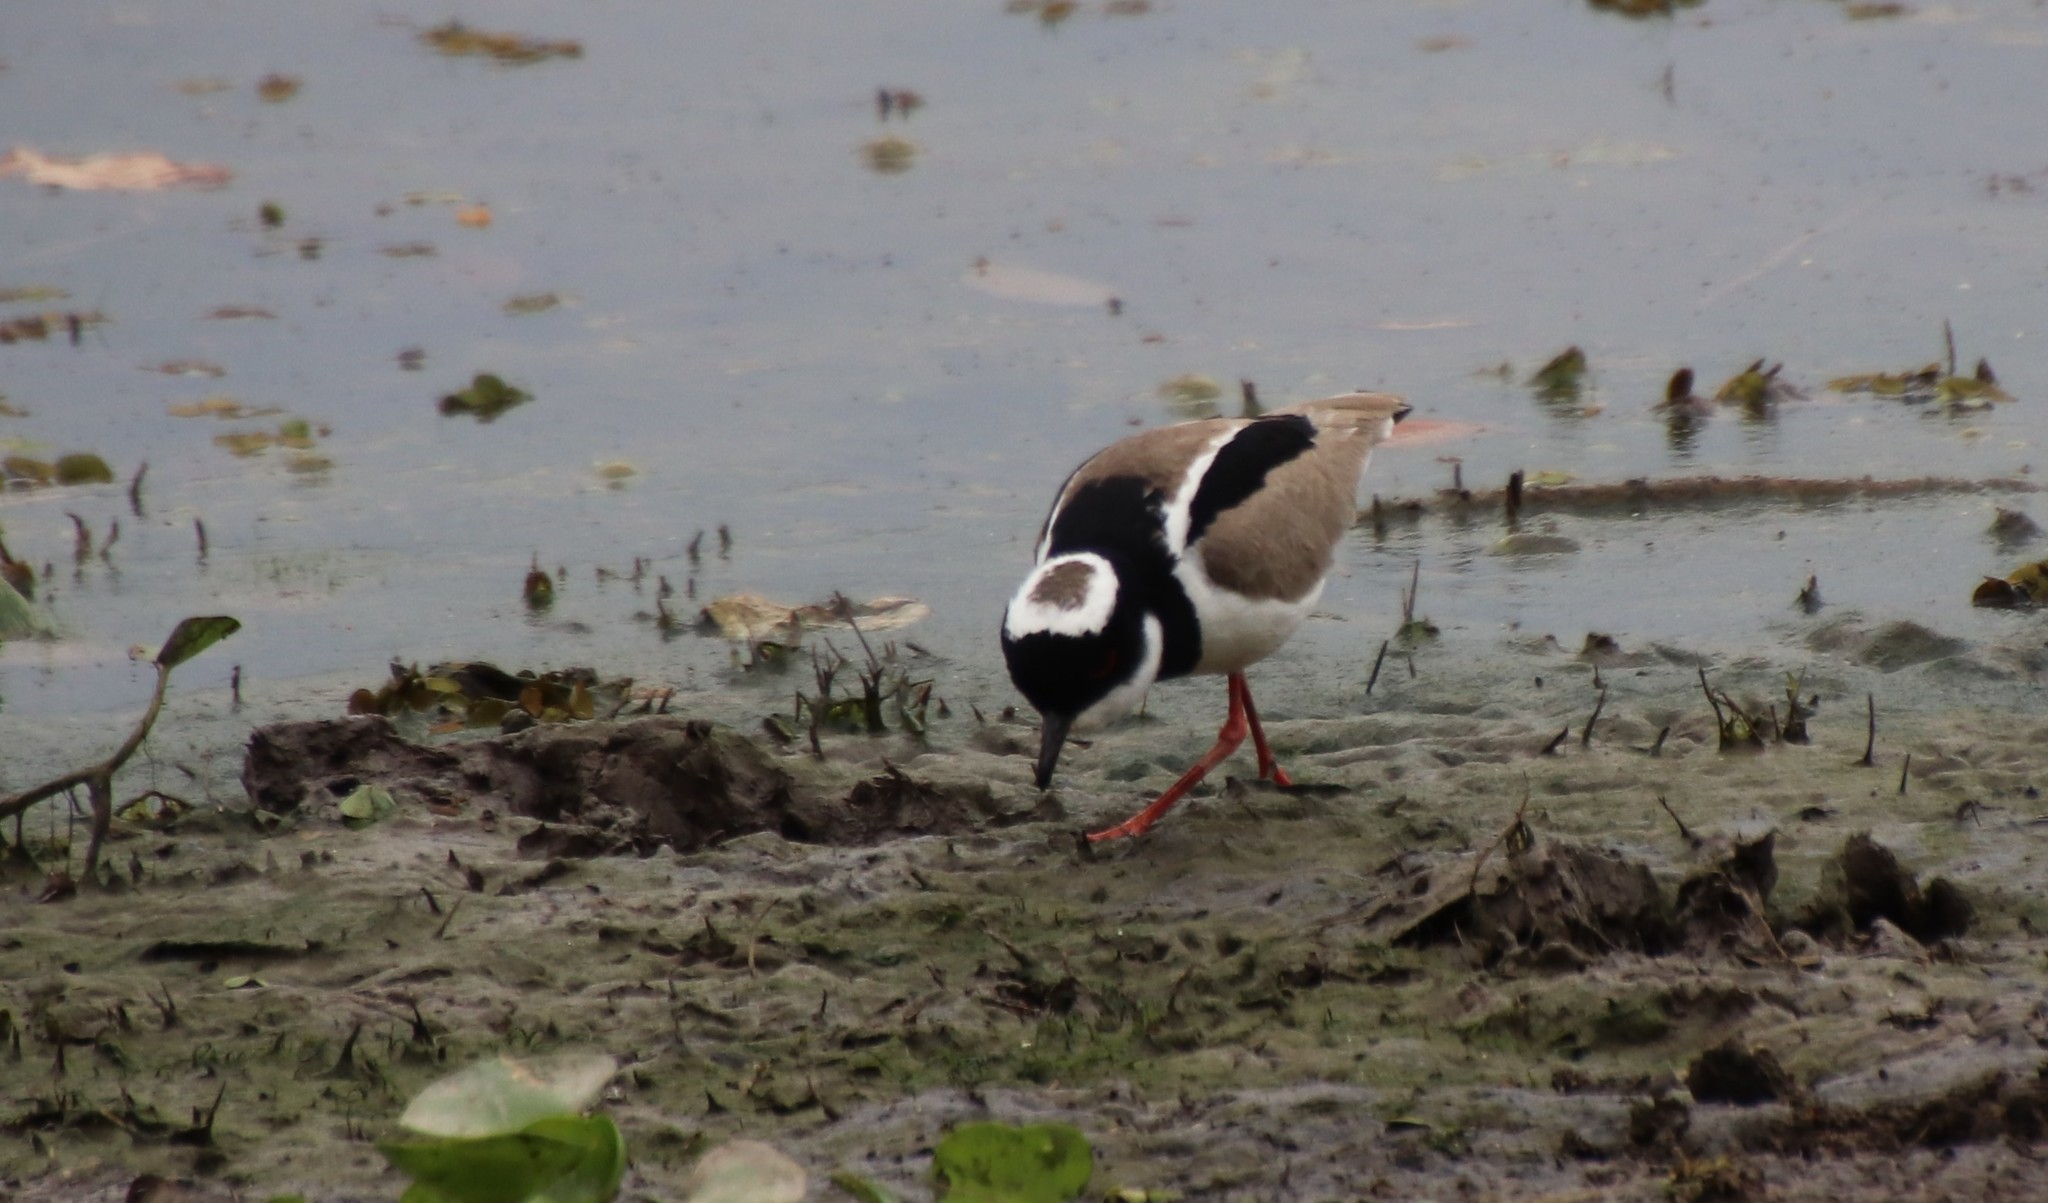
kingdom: Animalia
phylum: Chordata
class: Aves
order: Charadriiformes
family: Charadriidae
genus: Hoploxypterus
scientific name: Hoploxypterus cayanus
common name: Pied plover
